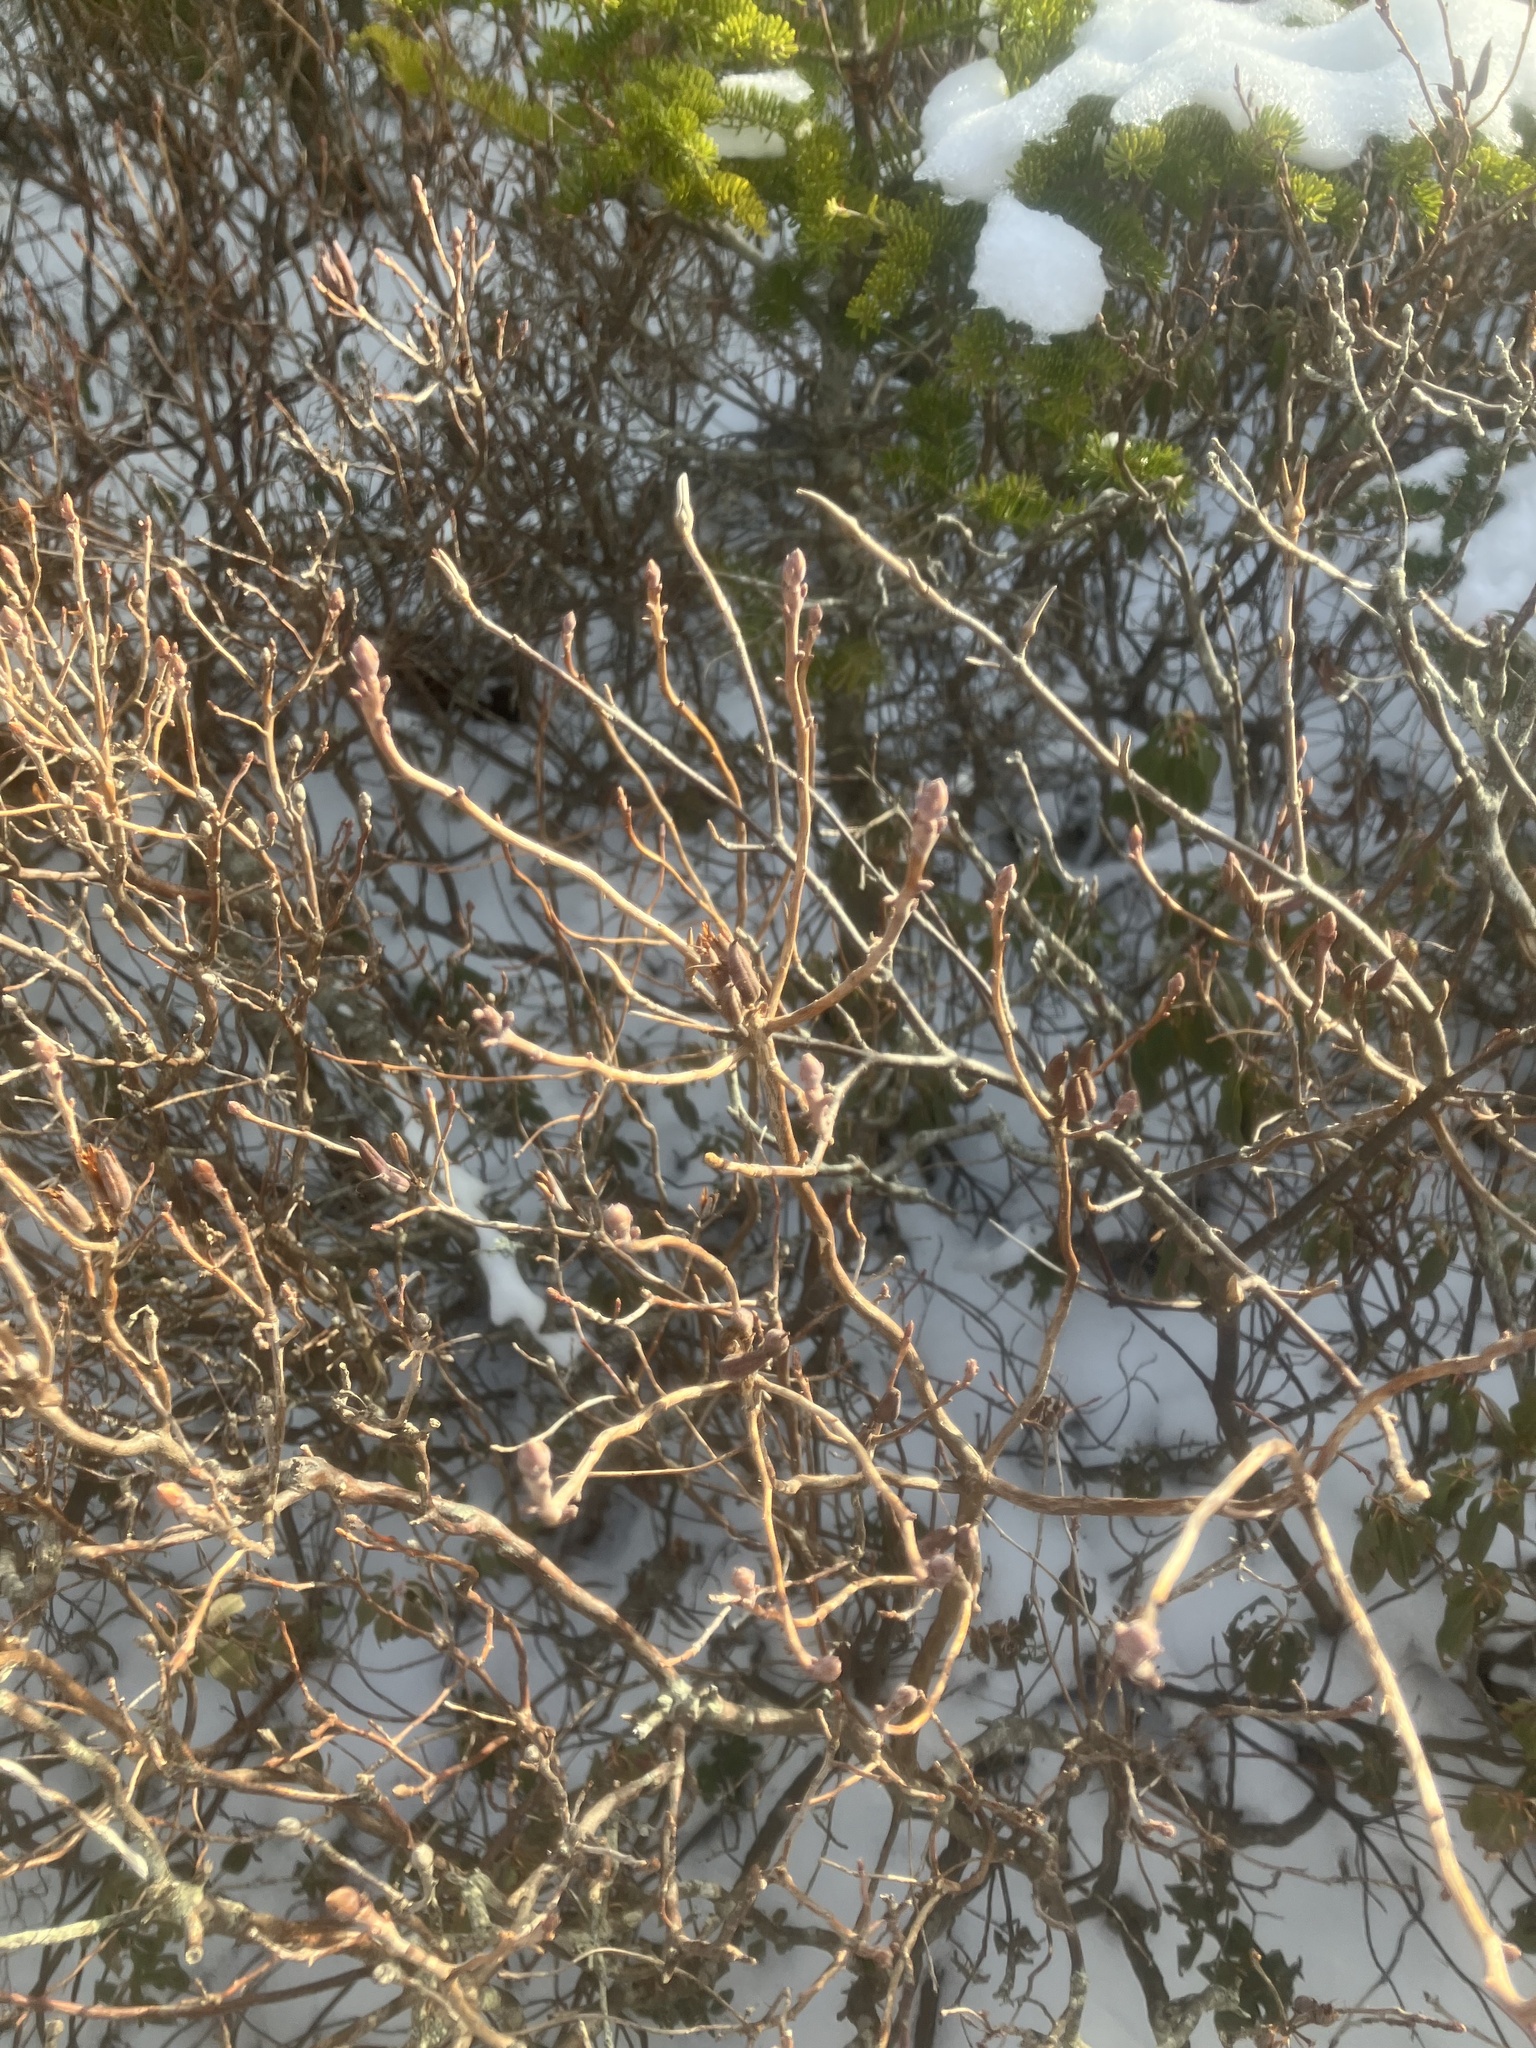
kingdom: Plantae
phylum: Tracheophyta
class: Magnoliopsida
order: Ericales
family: Ericaceae
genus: Rhododendron
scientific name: Rhododendron canadense
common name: Rhodora
